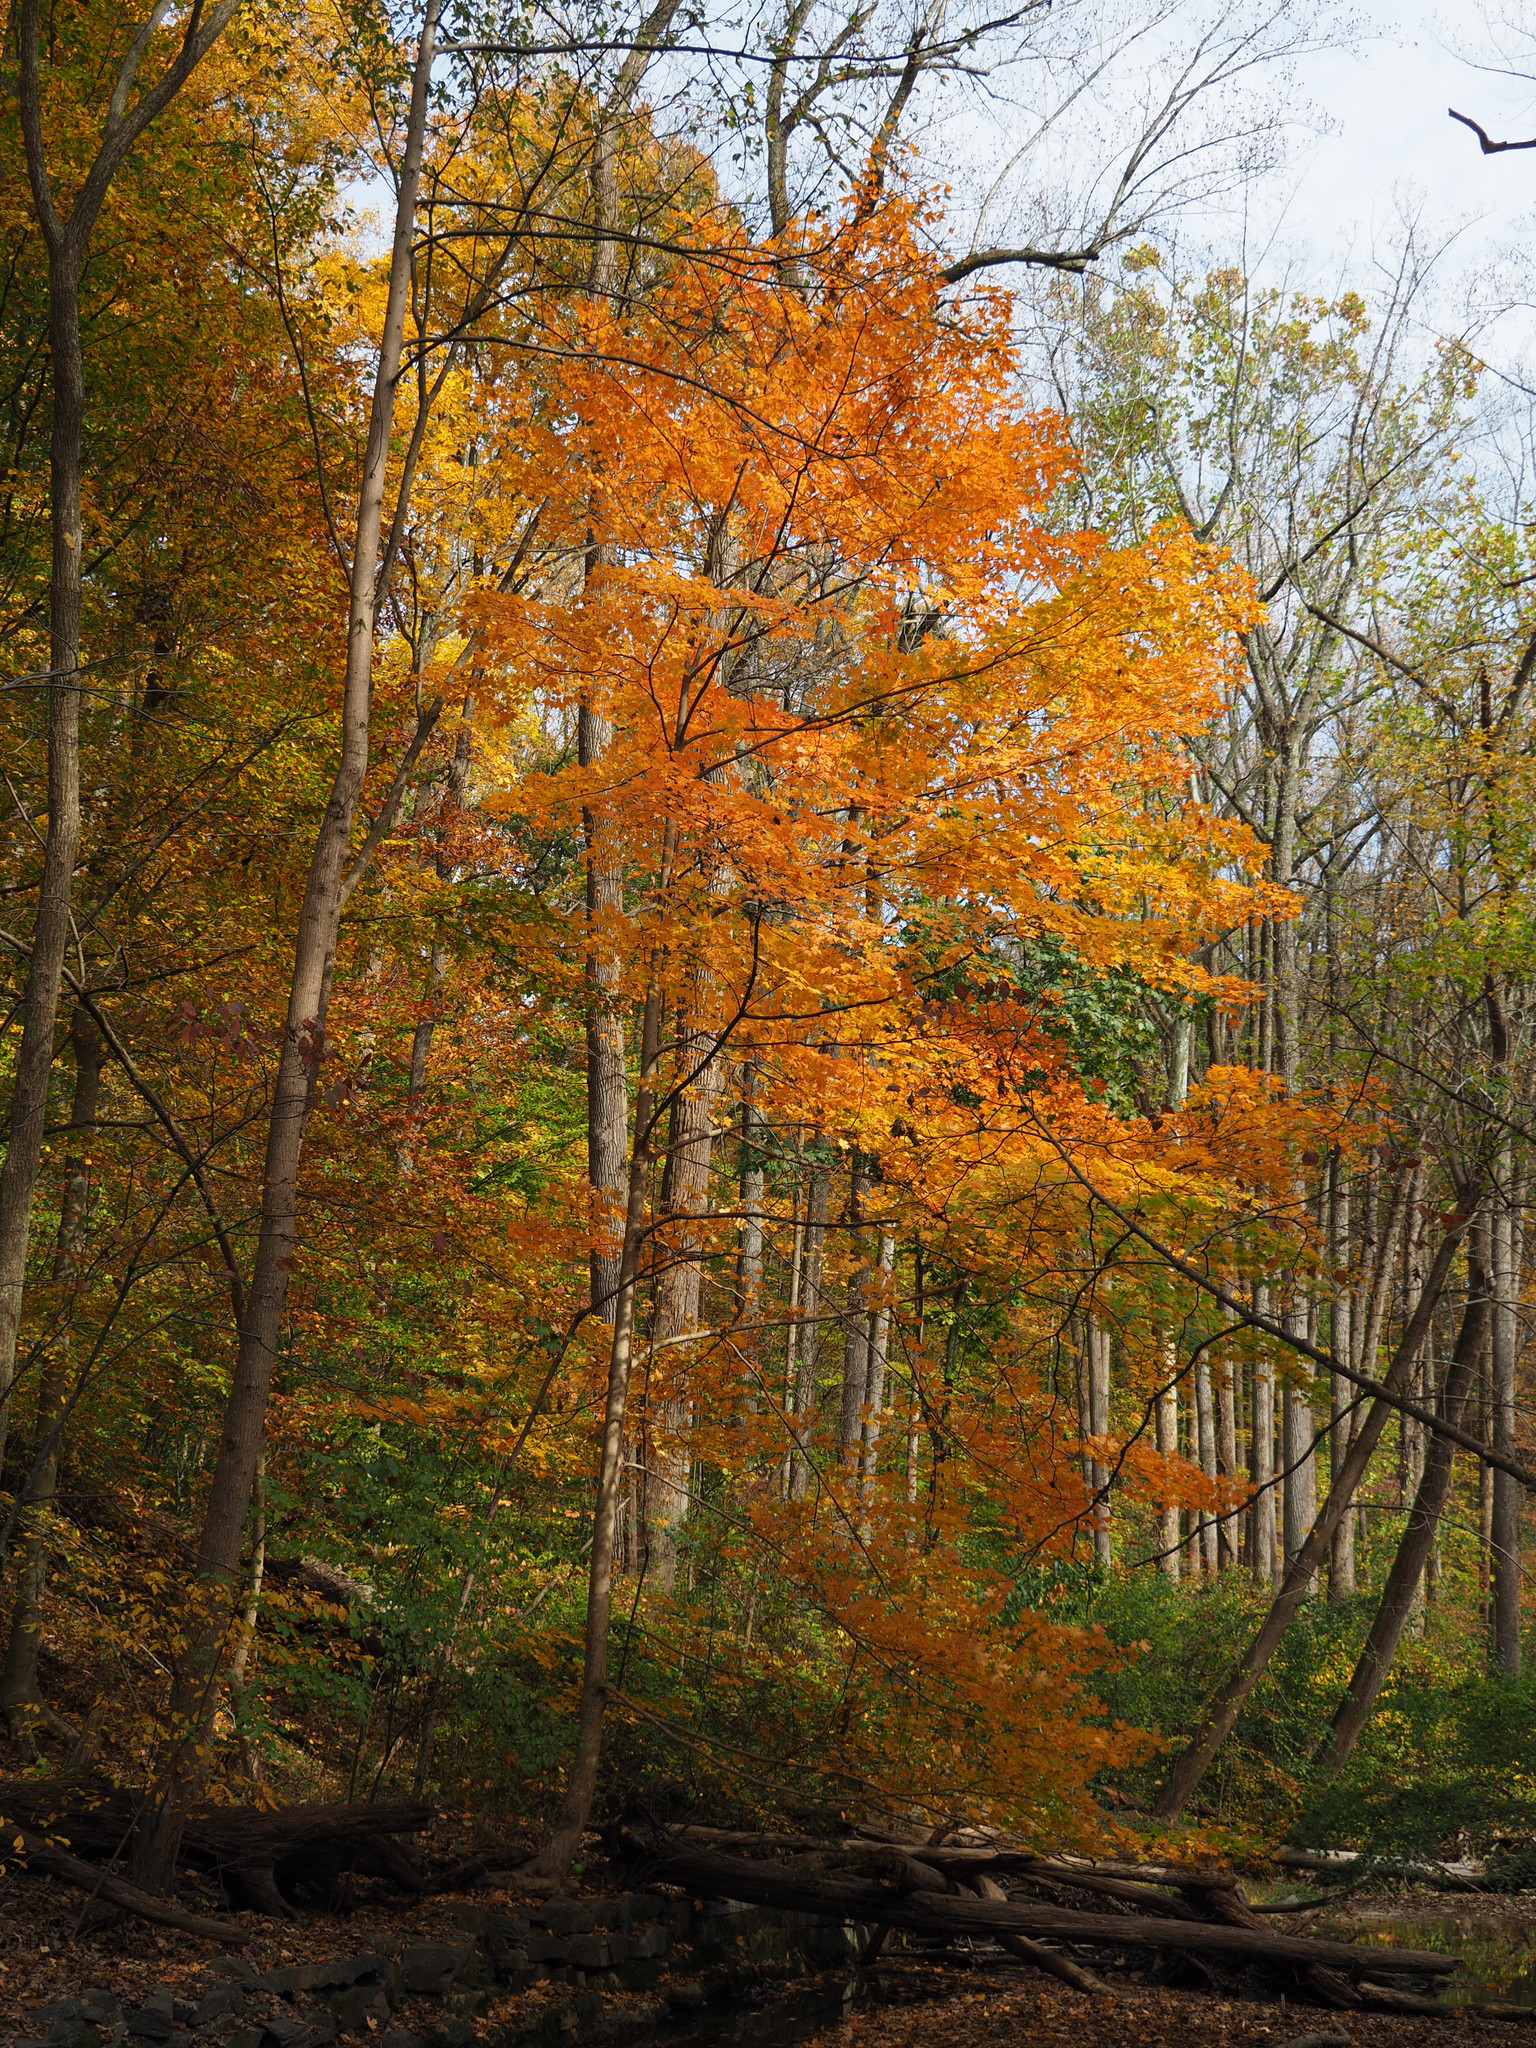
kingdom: Plantae
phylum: Tracheophyta
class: Magnoliopsida
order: Sapindales
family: Sapindaceae
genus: Acer
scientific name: Acer saccharum
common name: Sugar maple
